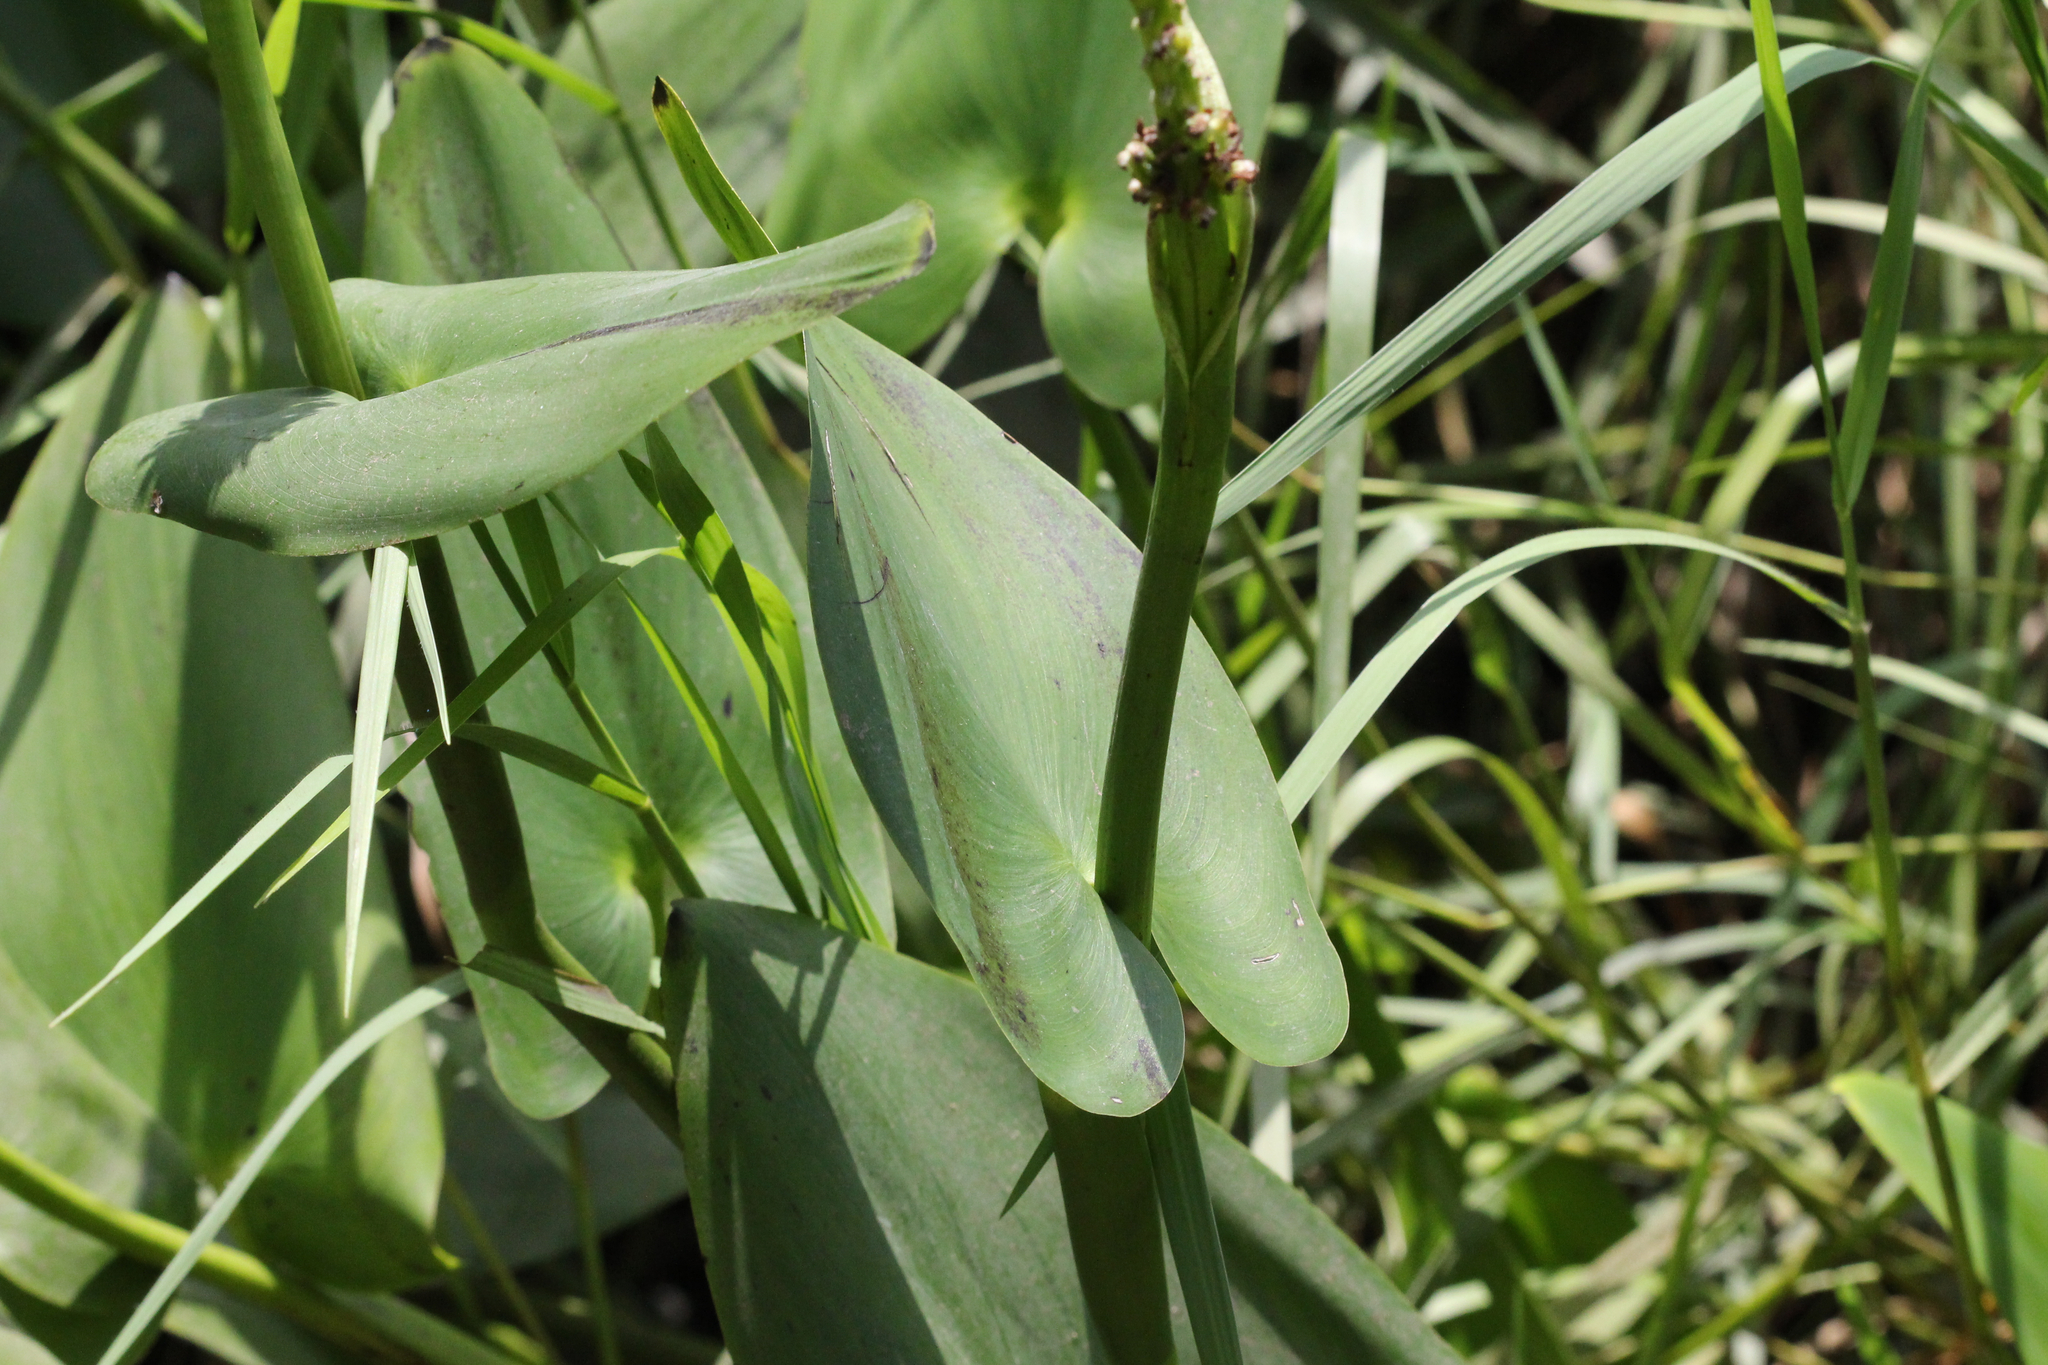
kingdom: Plantae
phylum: Tracheophyta
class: Liliopsida
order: Commelinales
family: Pontederiaceae
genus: Pontederia
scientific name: Pontederia cordata
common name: Pickerelweed
